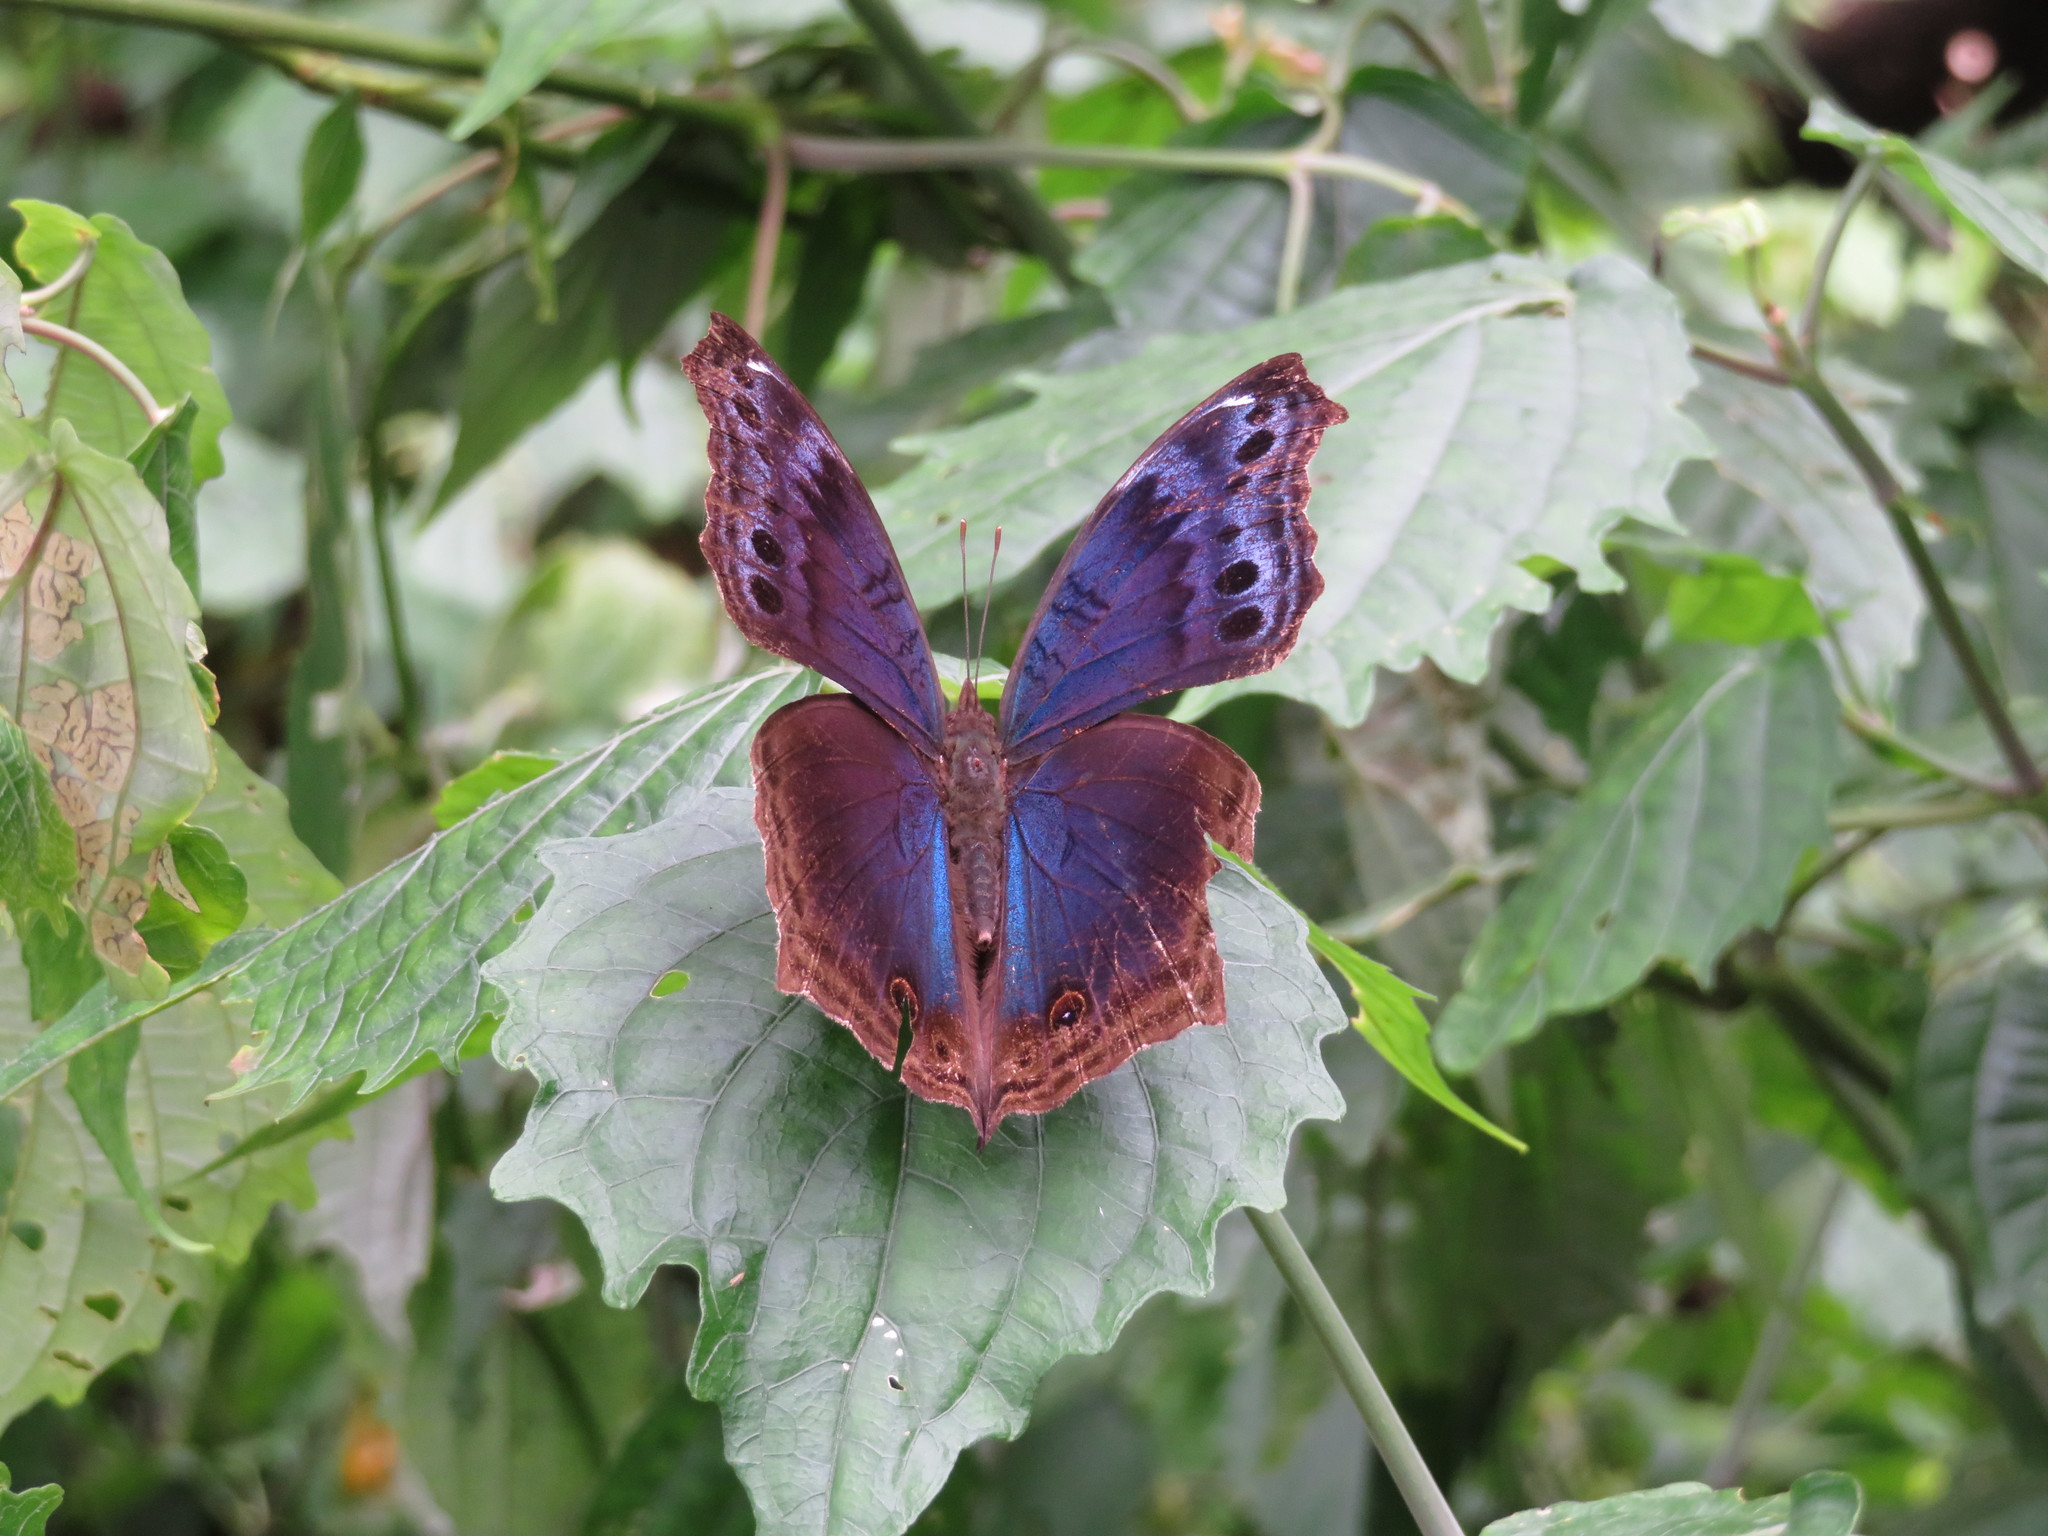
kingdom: Animalia
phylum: Arthropoda
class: Insecta
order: Lepidoptera
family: Nymphalidae
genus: Junonia
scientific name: Junonia
